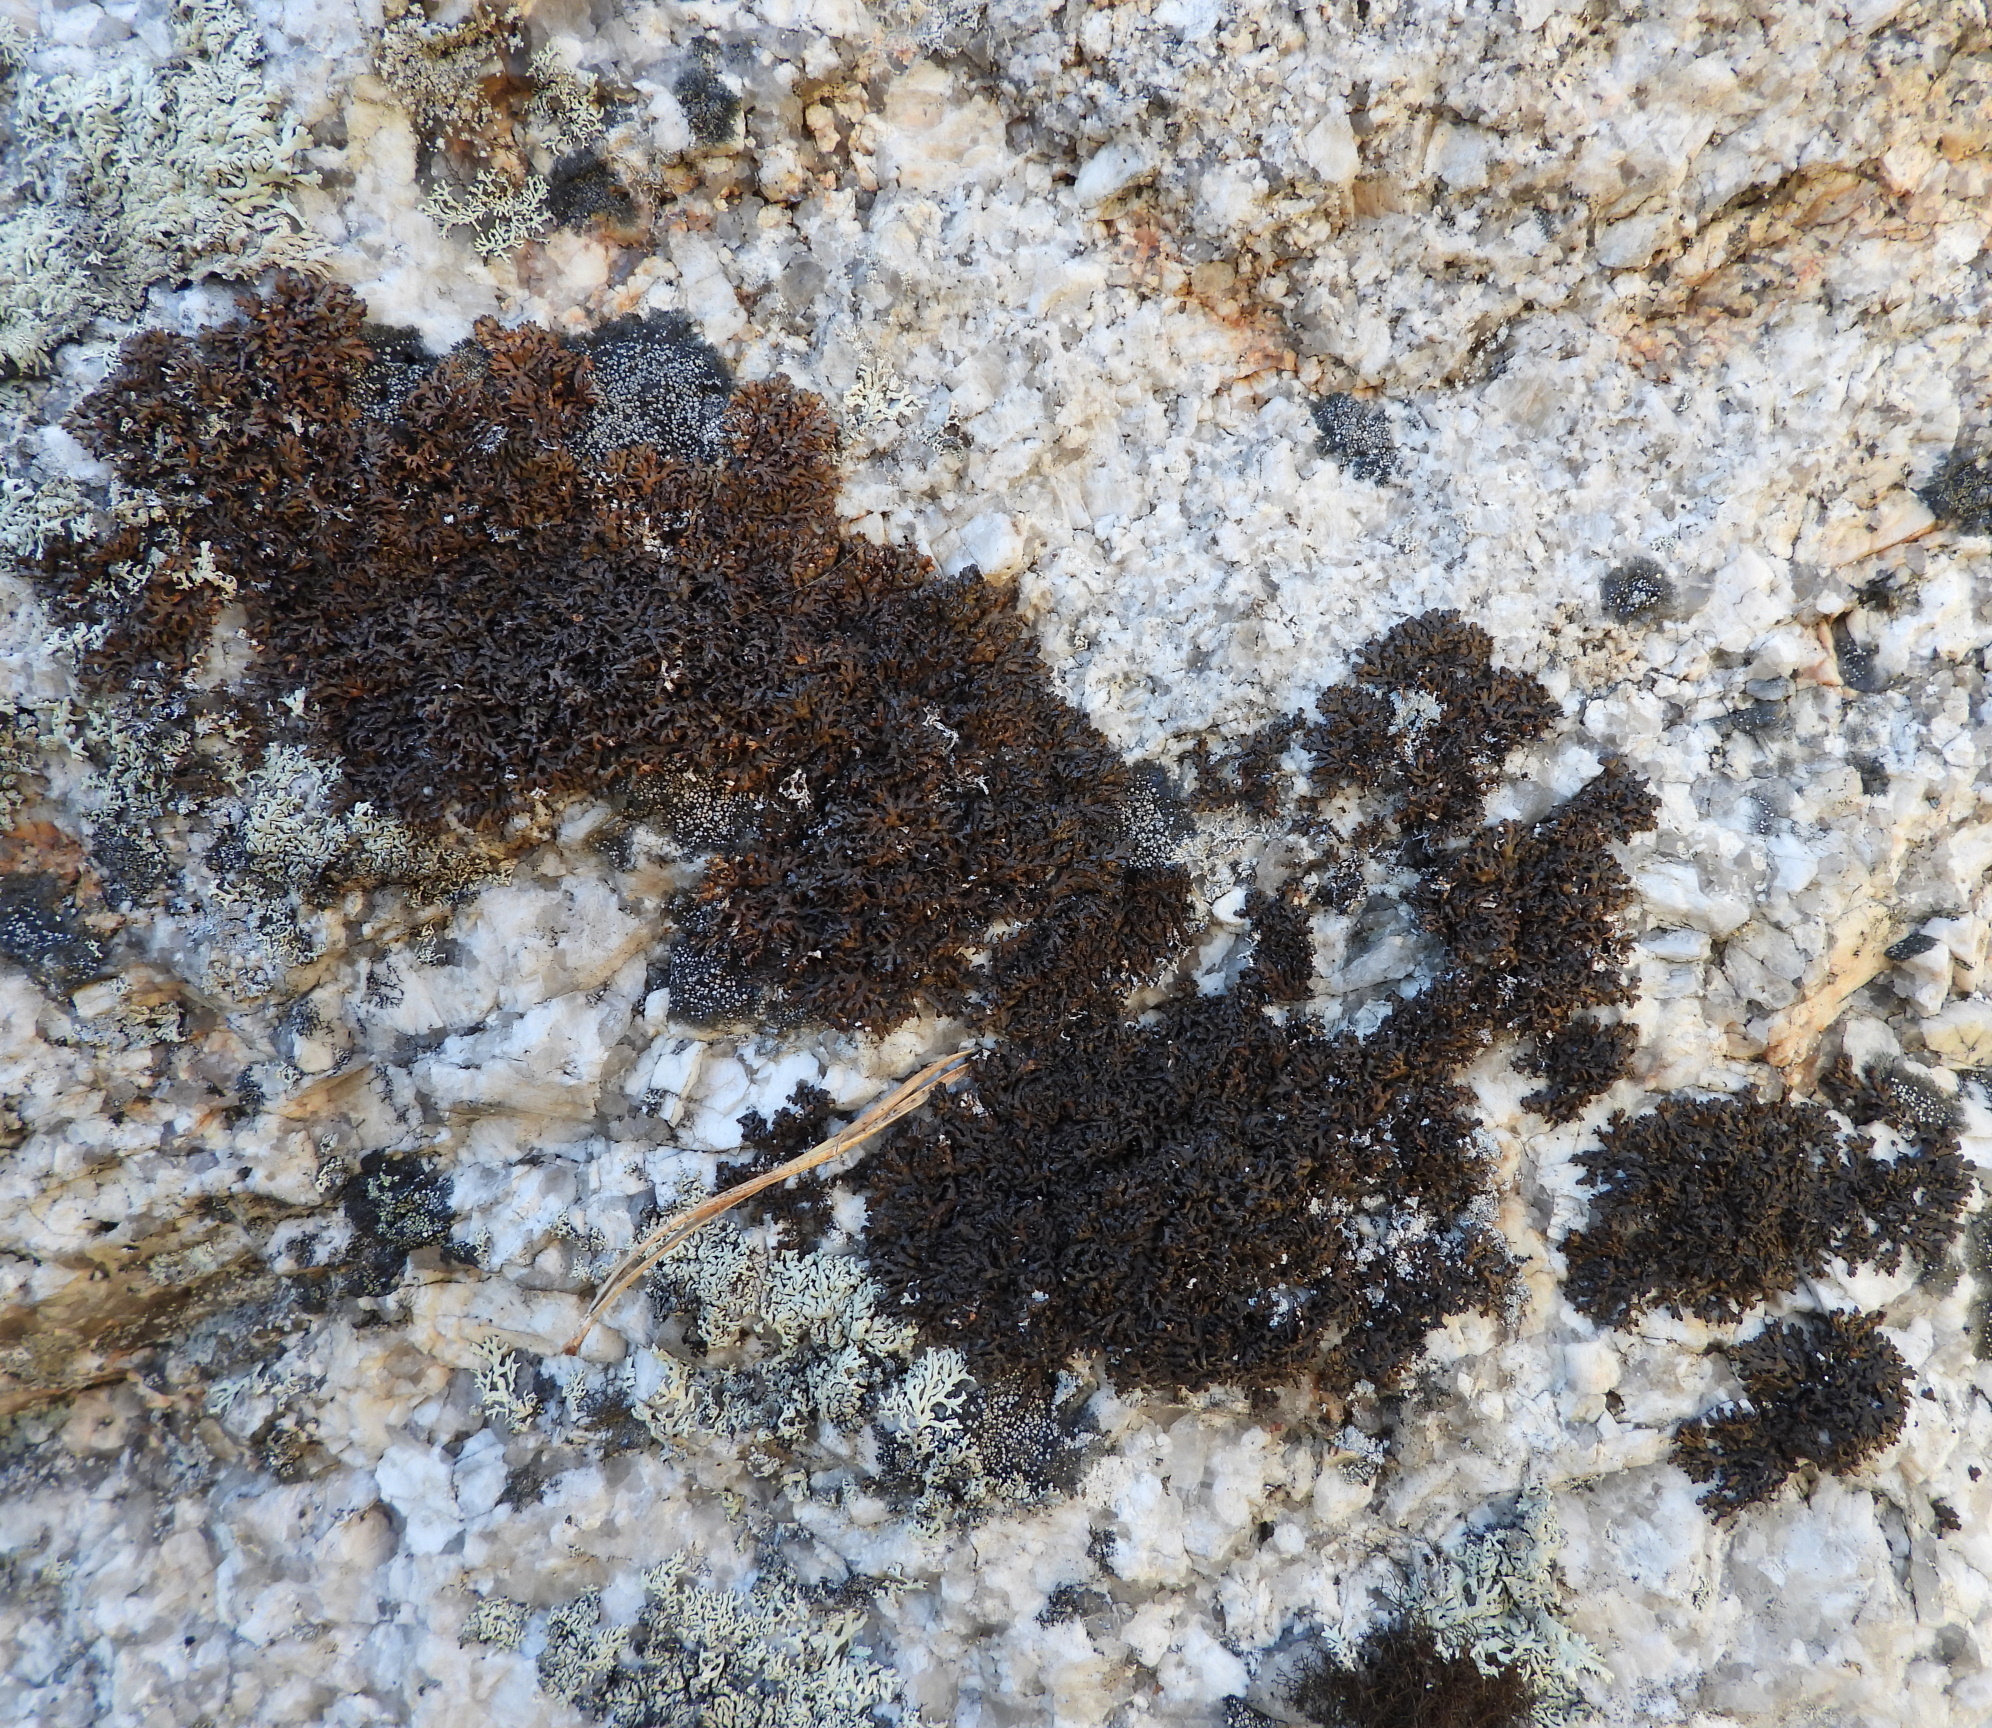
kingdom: Fungi
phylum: Ascomycota
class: Lecanoromycetes
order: Lecanorales
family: Parmeliaceae
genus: Montanelia
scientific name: Montanelia panniformis
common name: Shingled camouflage lichen
